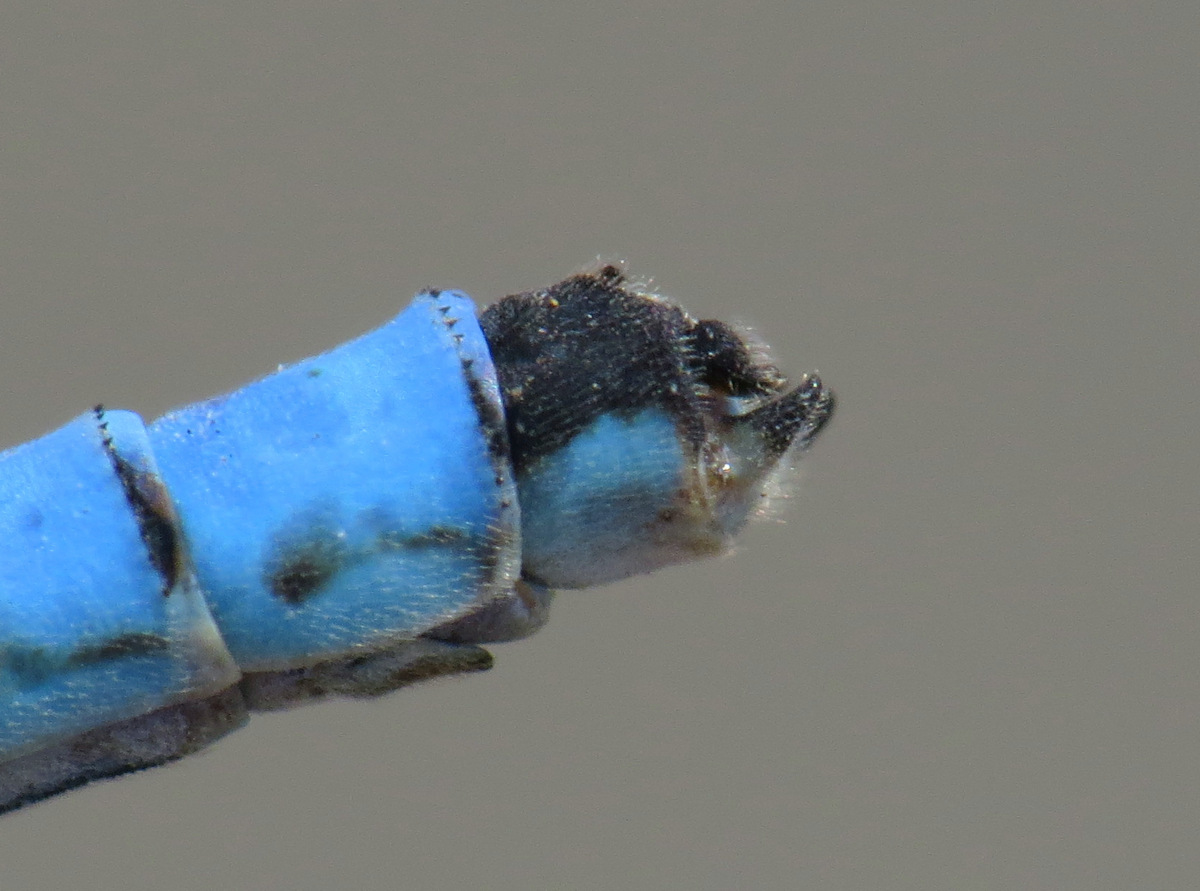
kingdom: Animalia
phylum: Arthropoda
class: Insecta
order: Odonata
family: Coenagrionidae
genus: Enallagma
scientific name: Enallagma annexum
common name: Northern bluet
